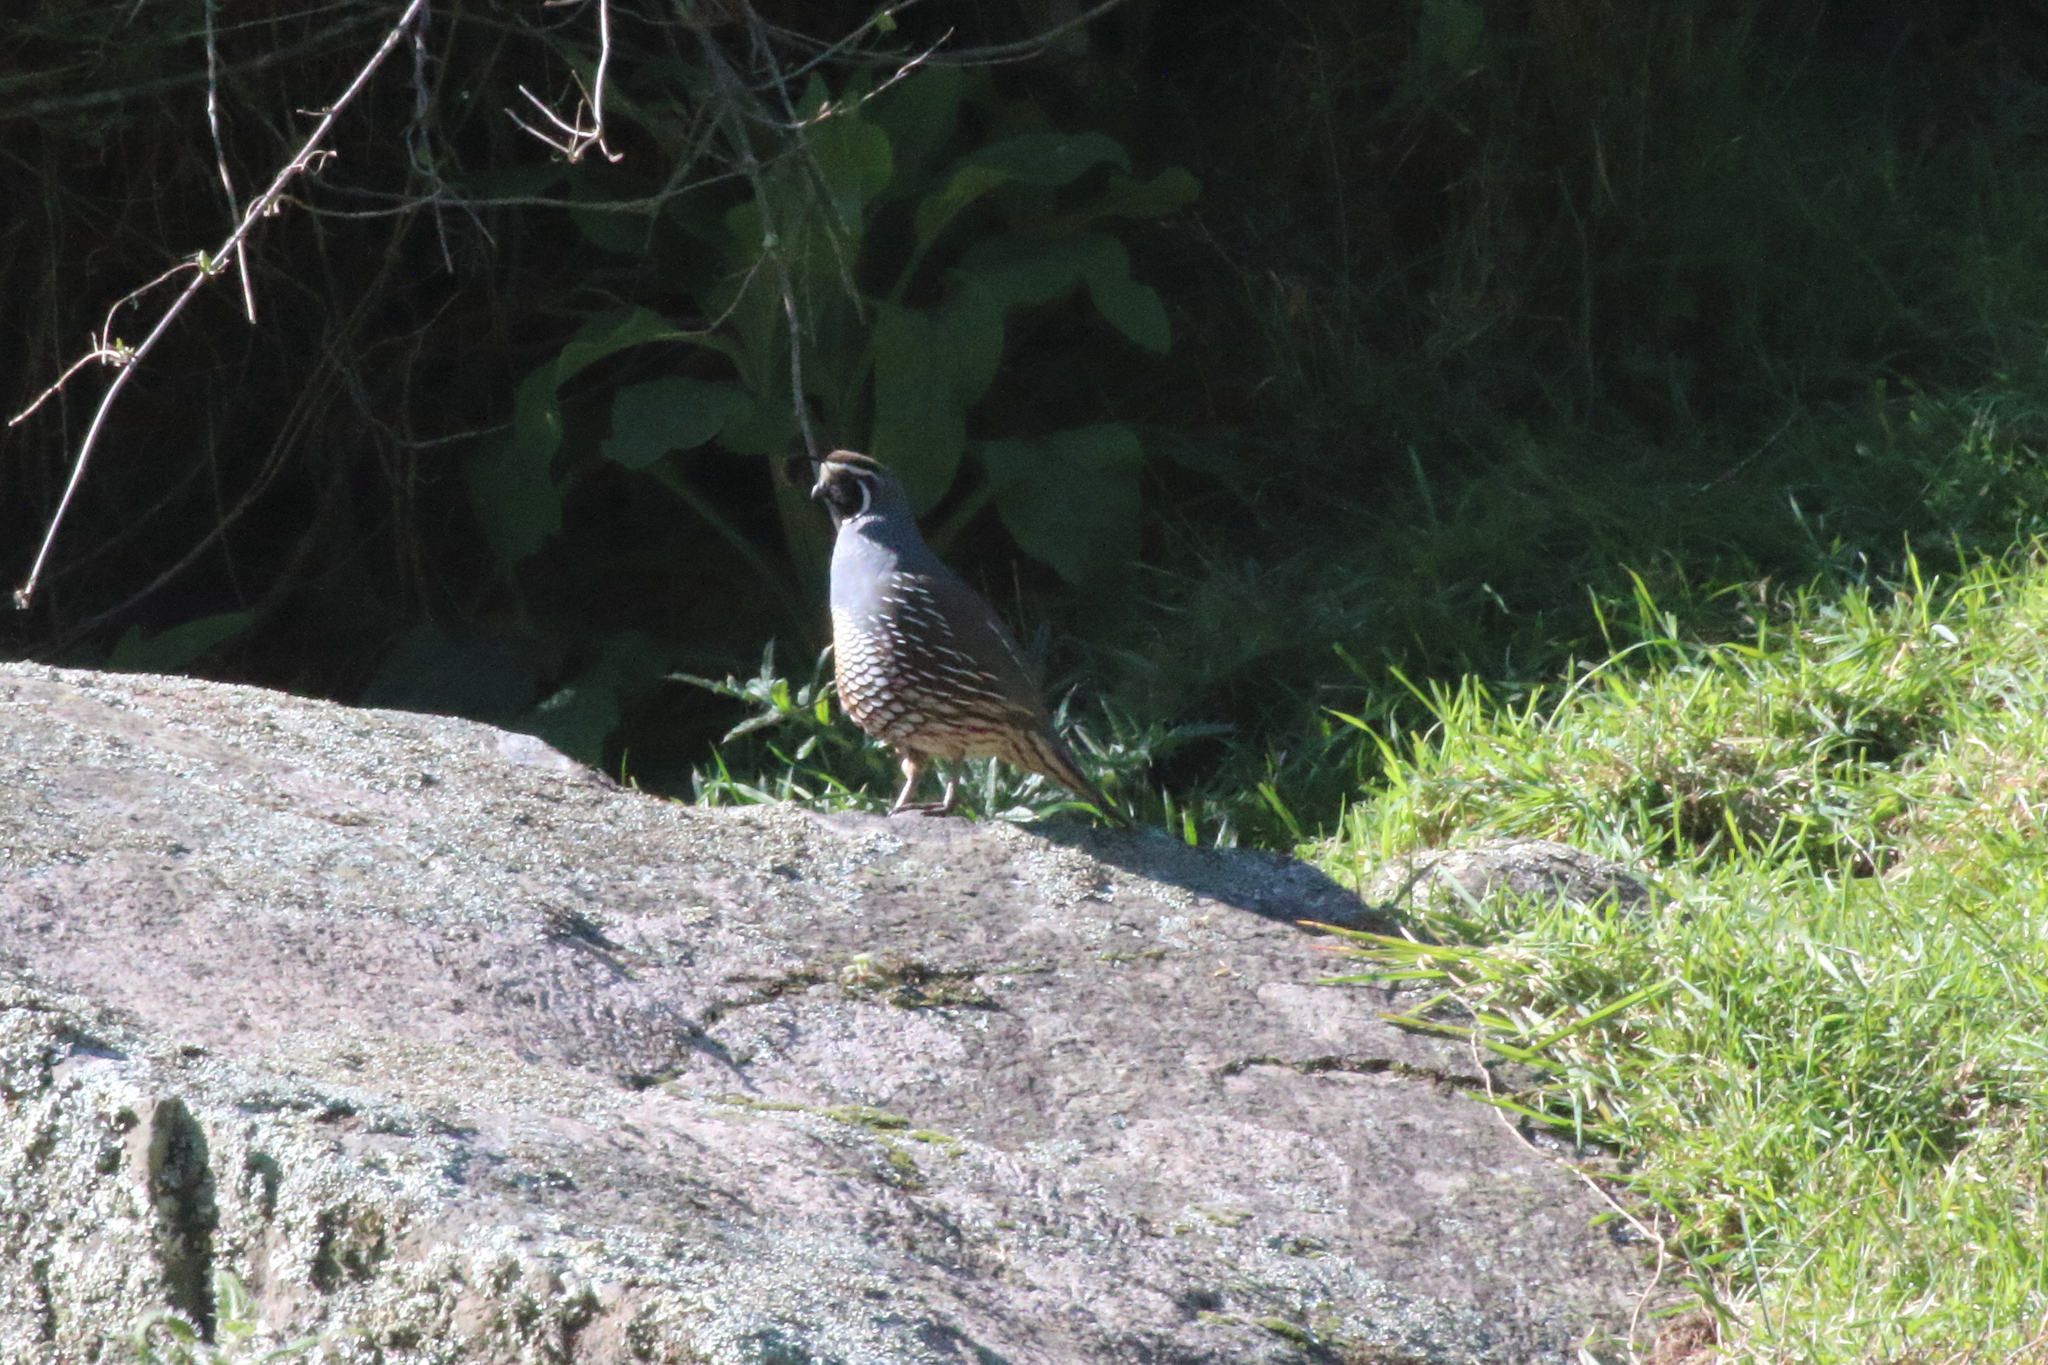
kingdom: Animalia
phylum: Chordata
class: Aves
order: Galliformes
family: Odontophoridae
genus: Callipepla
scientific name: Callipepla californica
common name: California quail
